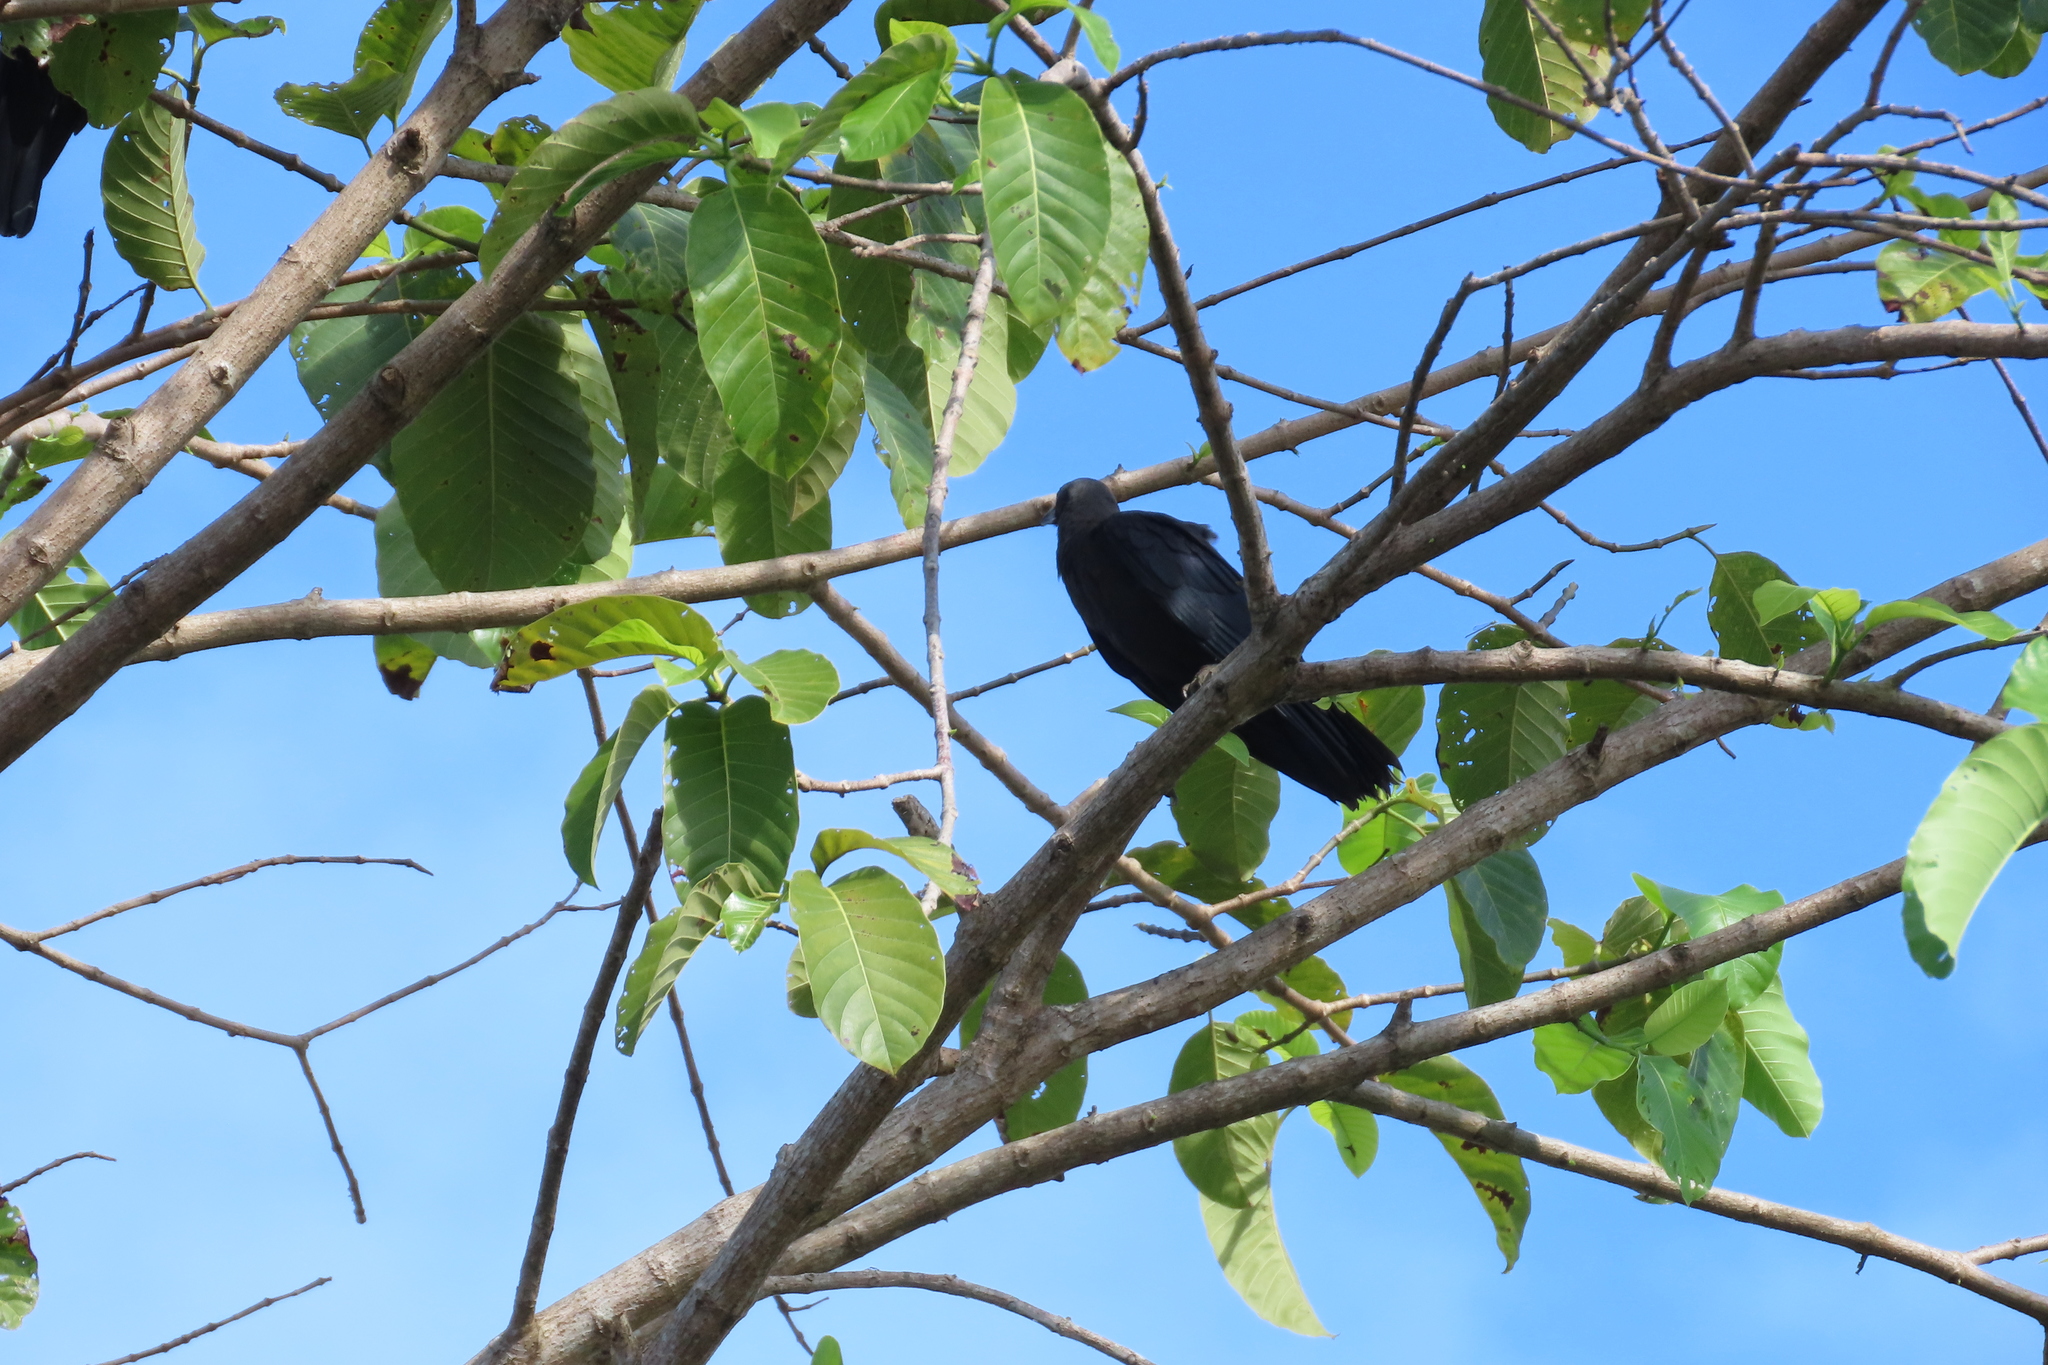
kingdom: Animalia
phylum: Chordata
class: Aves
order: Passeriformes
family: Corvidae
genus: Corvus
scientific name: Corvus splendens
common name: House crow
